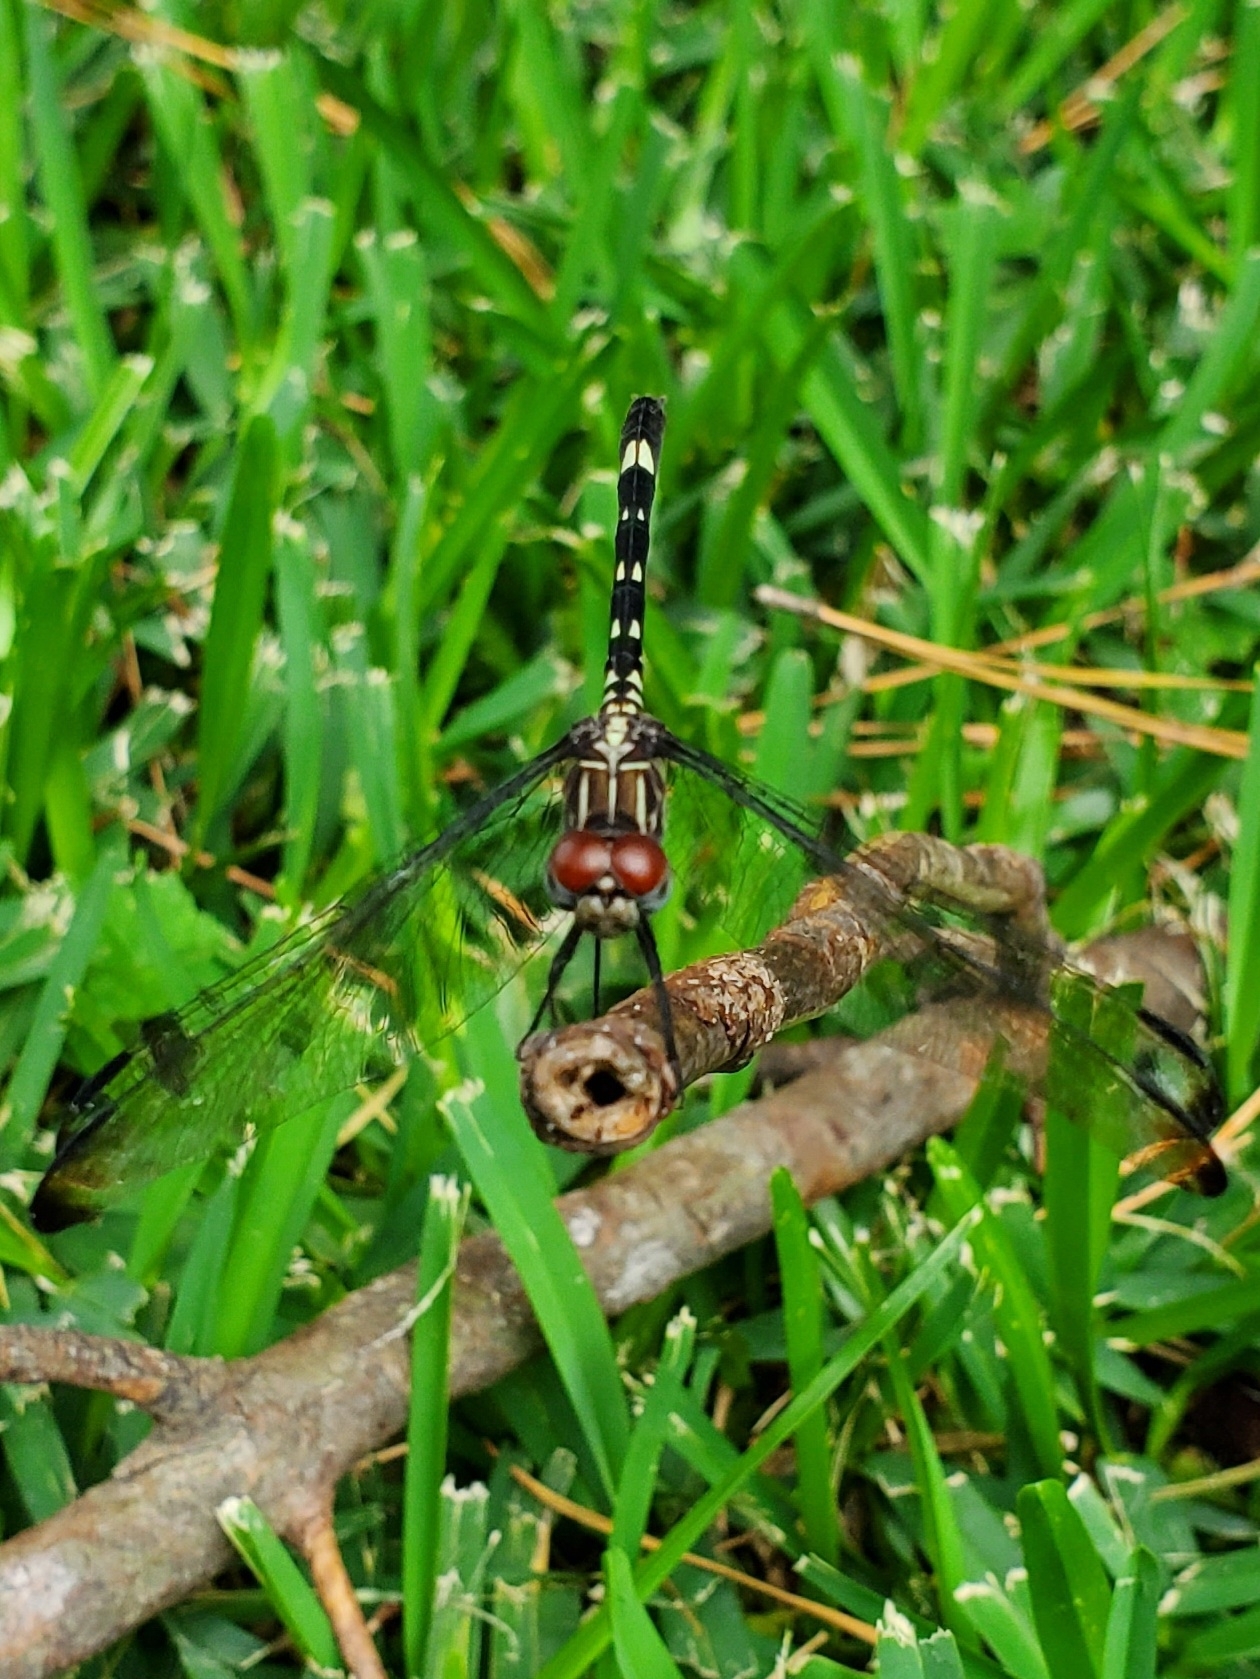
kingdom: Animalia
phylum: Arthropoda
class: Insecta
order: Odonata
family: Libellulidae
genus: Dythemis
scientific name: Dythemis velox
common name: Swift setwing
